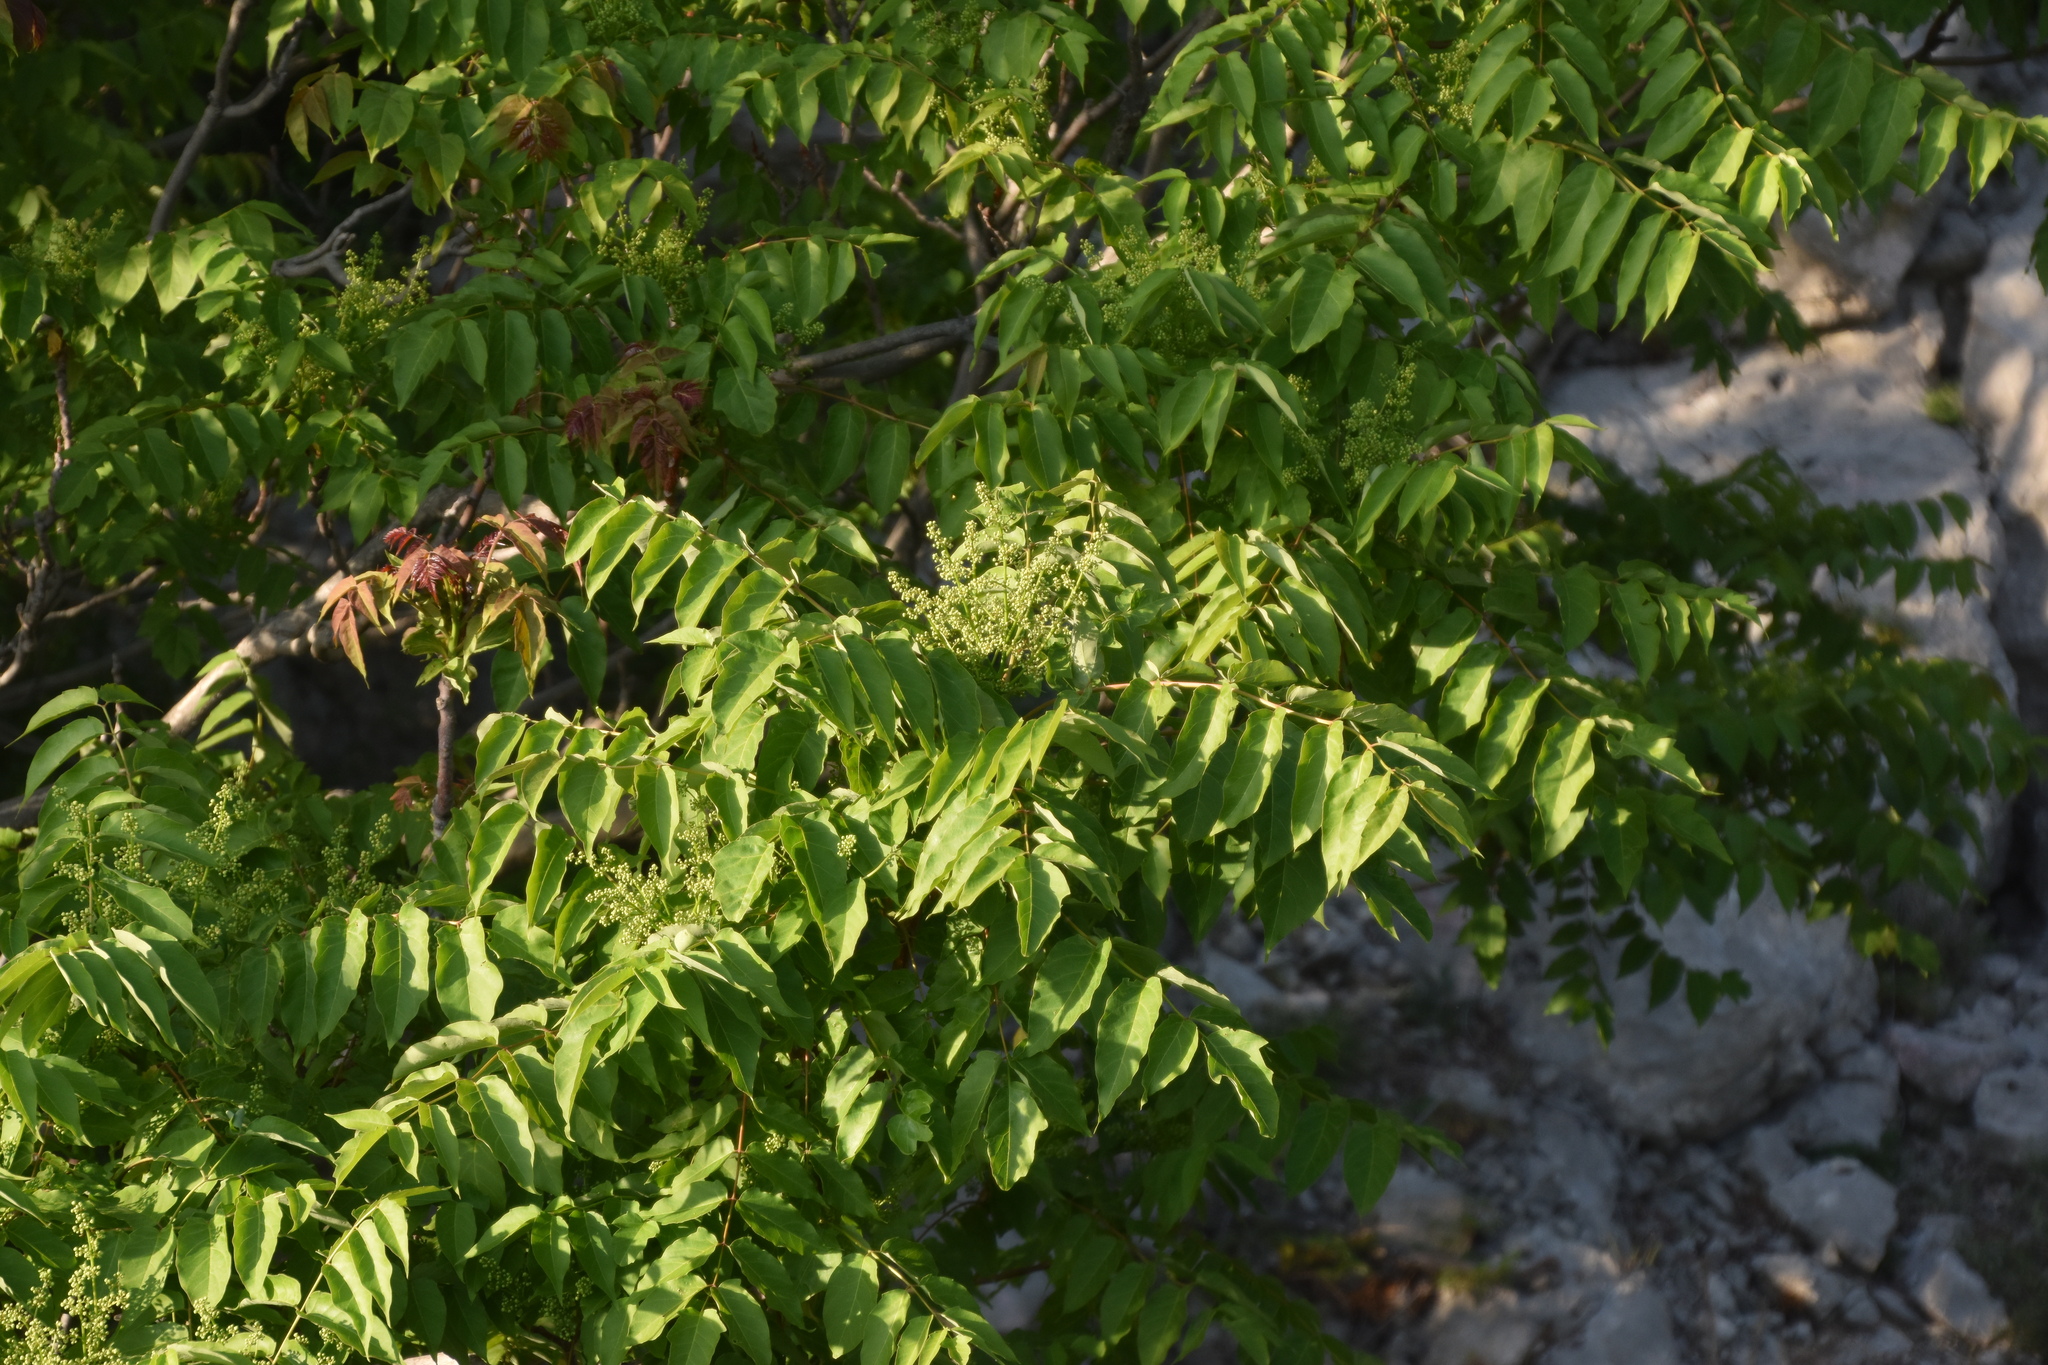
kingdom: Plantae
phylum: Tracheophyta
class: Magnoliopsida
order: Sapindales
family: Simaroubaceae
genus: Ailanthus
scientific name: Ailanthus altissima
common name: Tree-of-heaven
